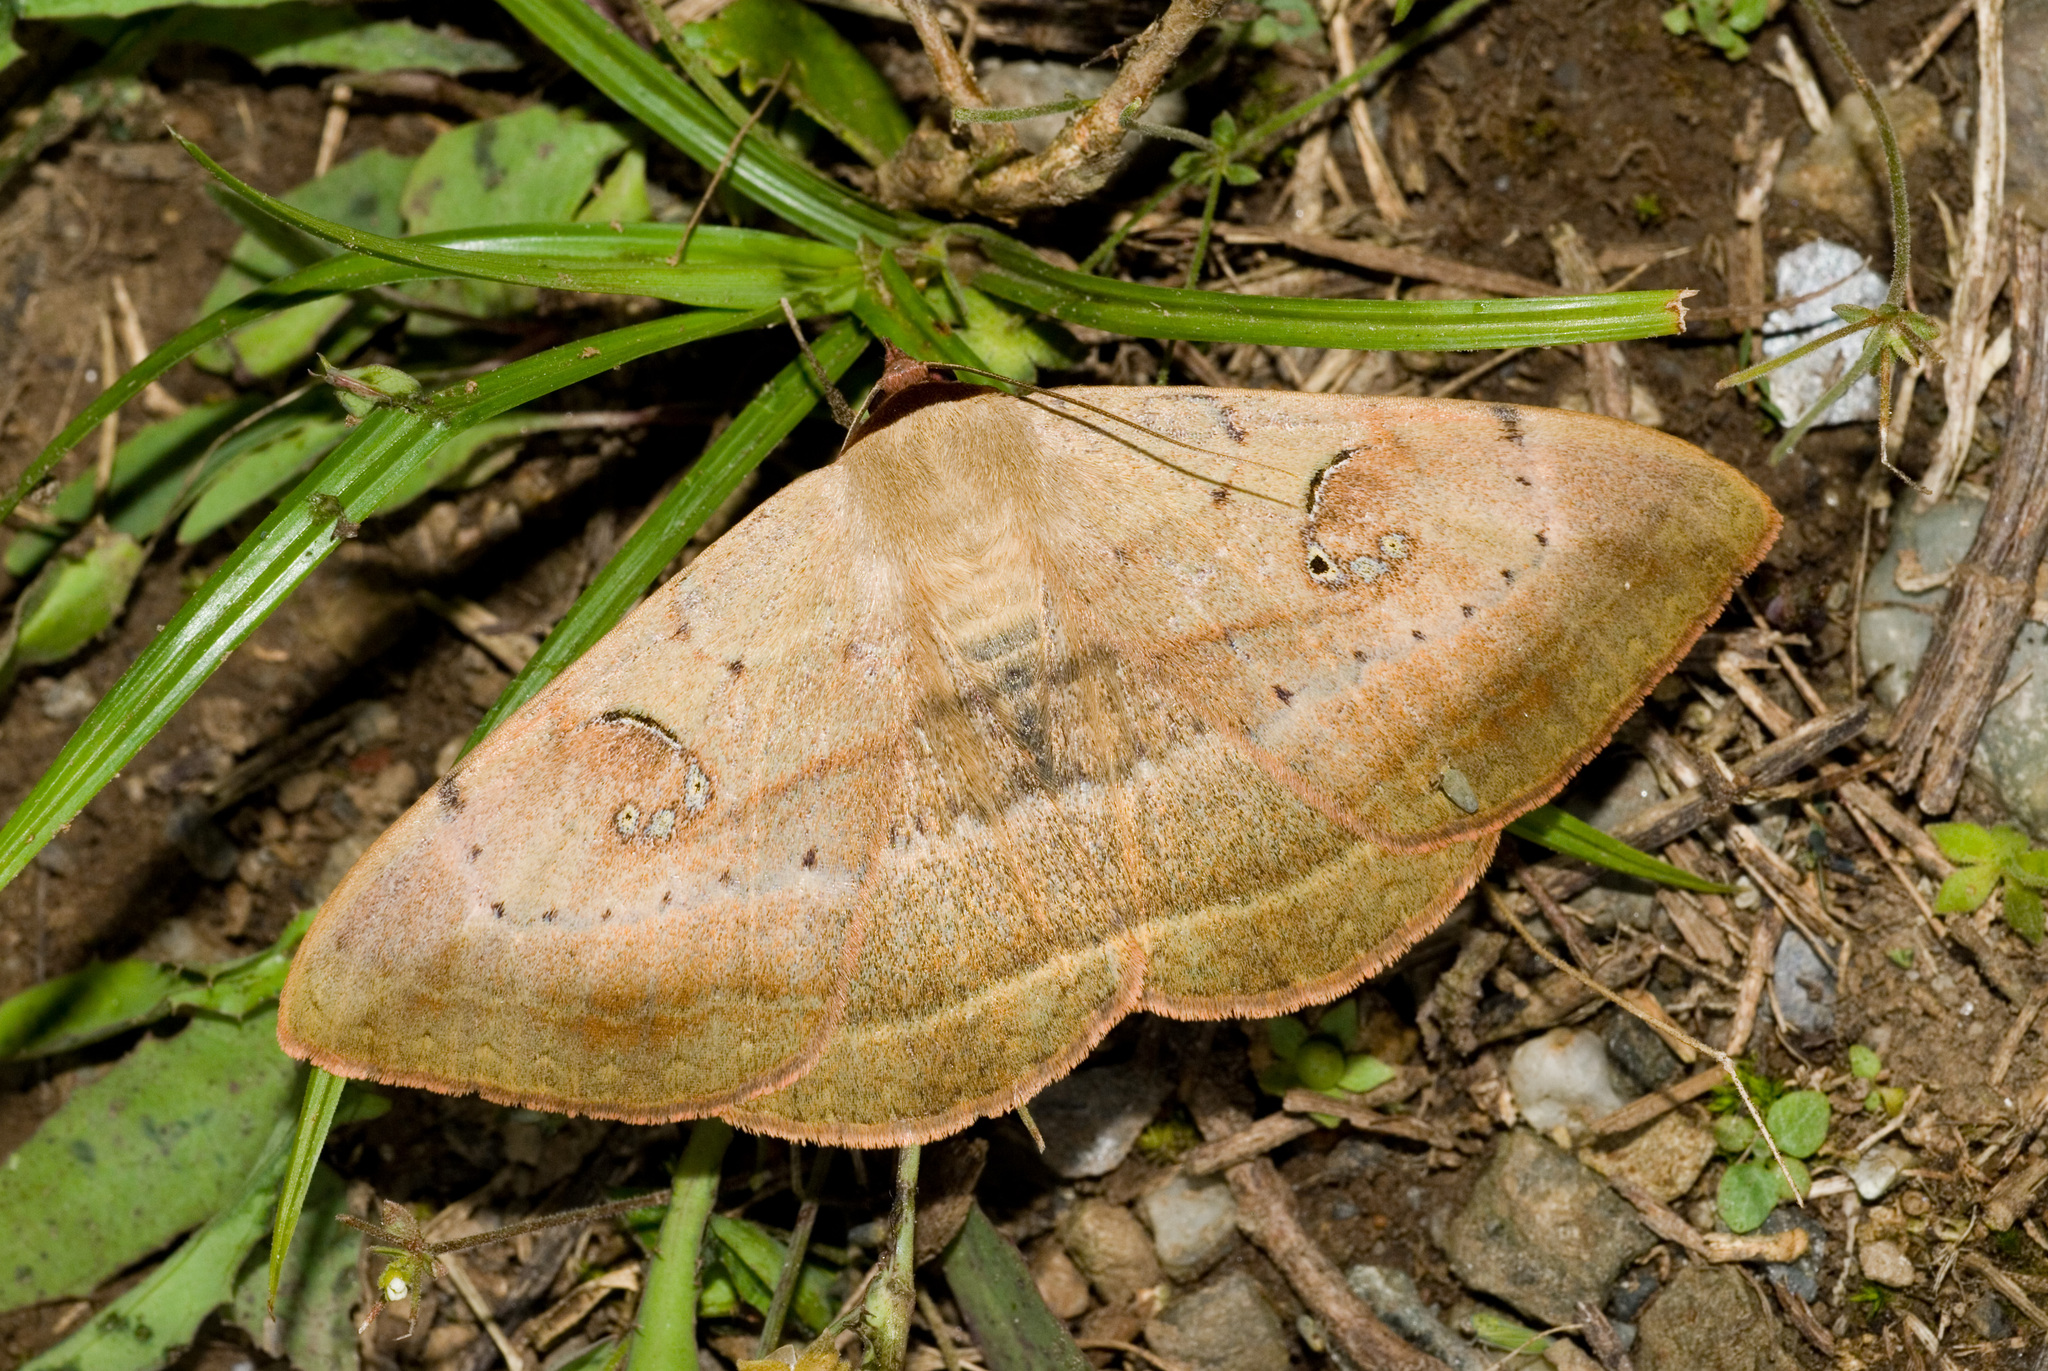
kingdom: Animalia
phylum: Arthropoda
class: Insecta
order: Lepidoptera
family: Erebidae
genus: Hypopyra
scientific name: Hypopyra vespertilio
